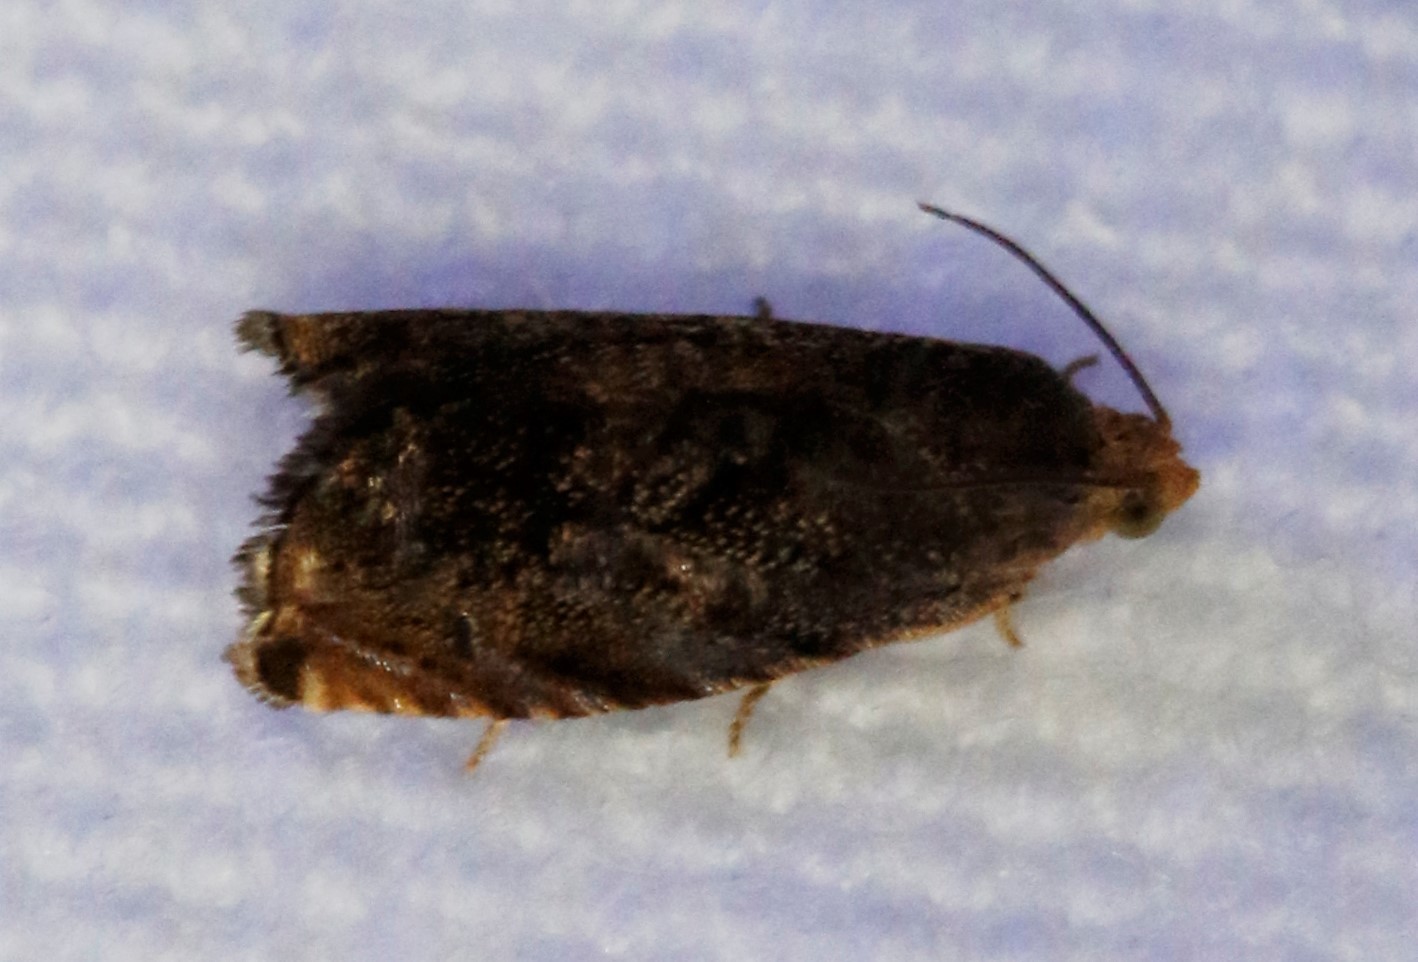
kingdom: Animalia
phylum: Arthropoda
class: Insecta
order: Lepidoptera
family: Tortricidae
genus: Cydia
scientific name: Cydia caryana
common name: Hickory shuckworm moth
